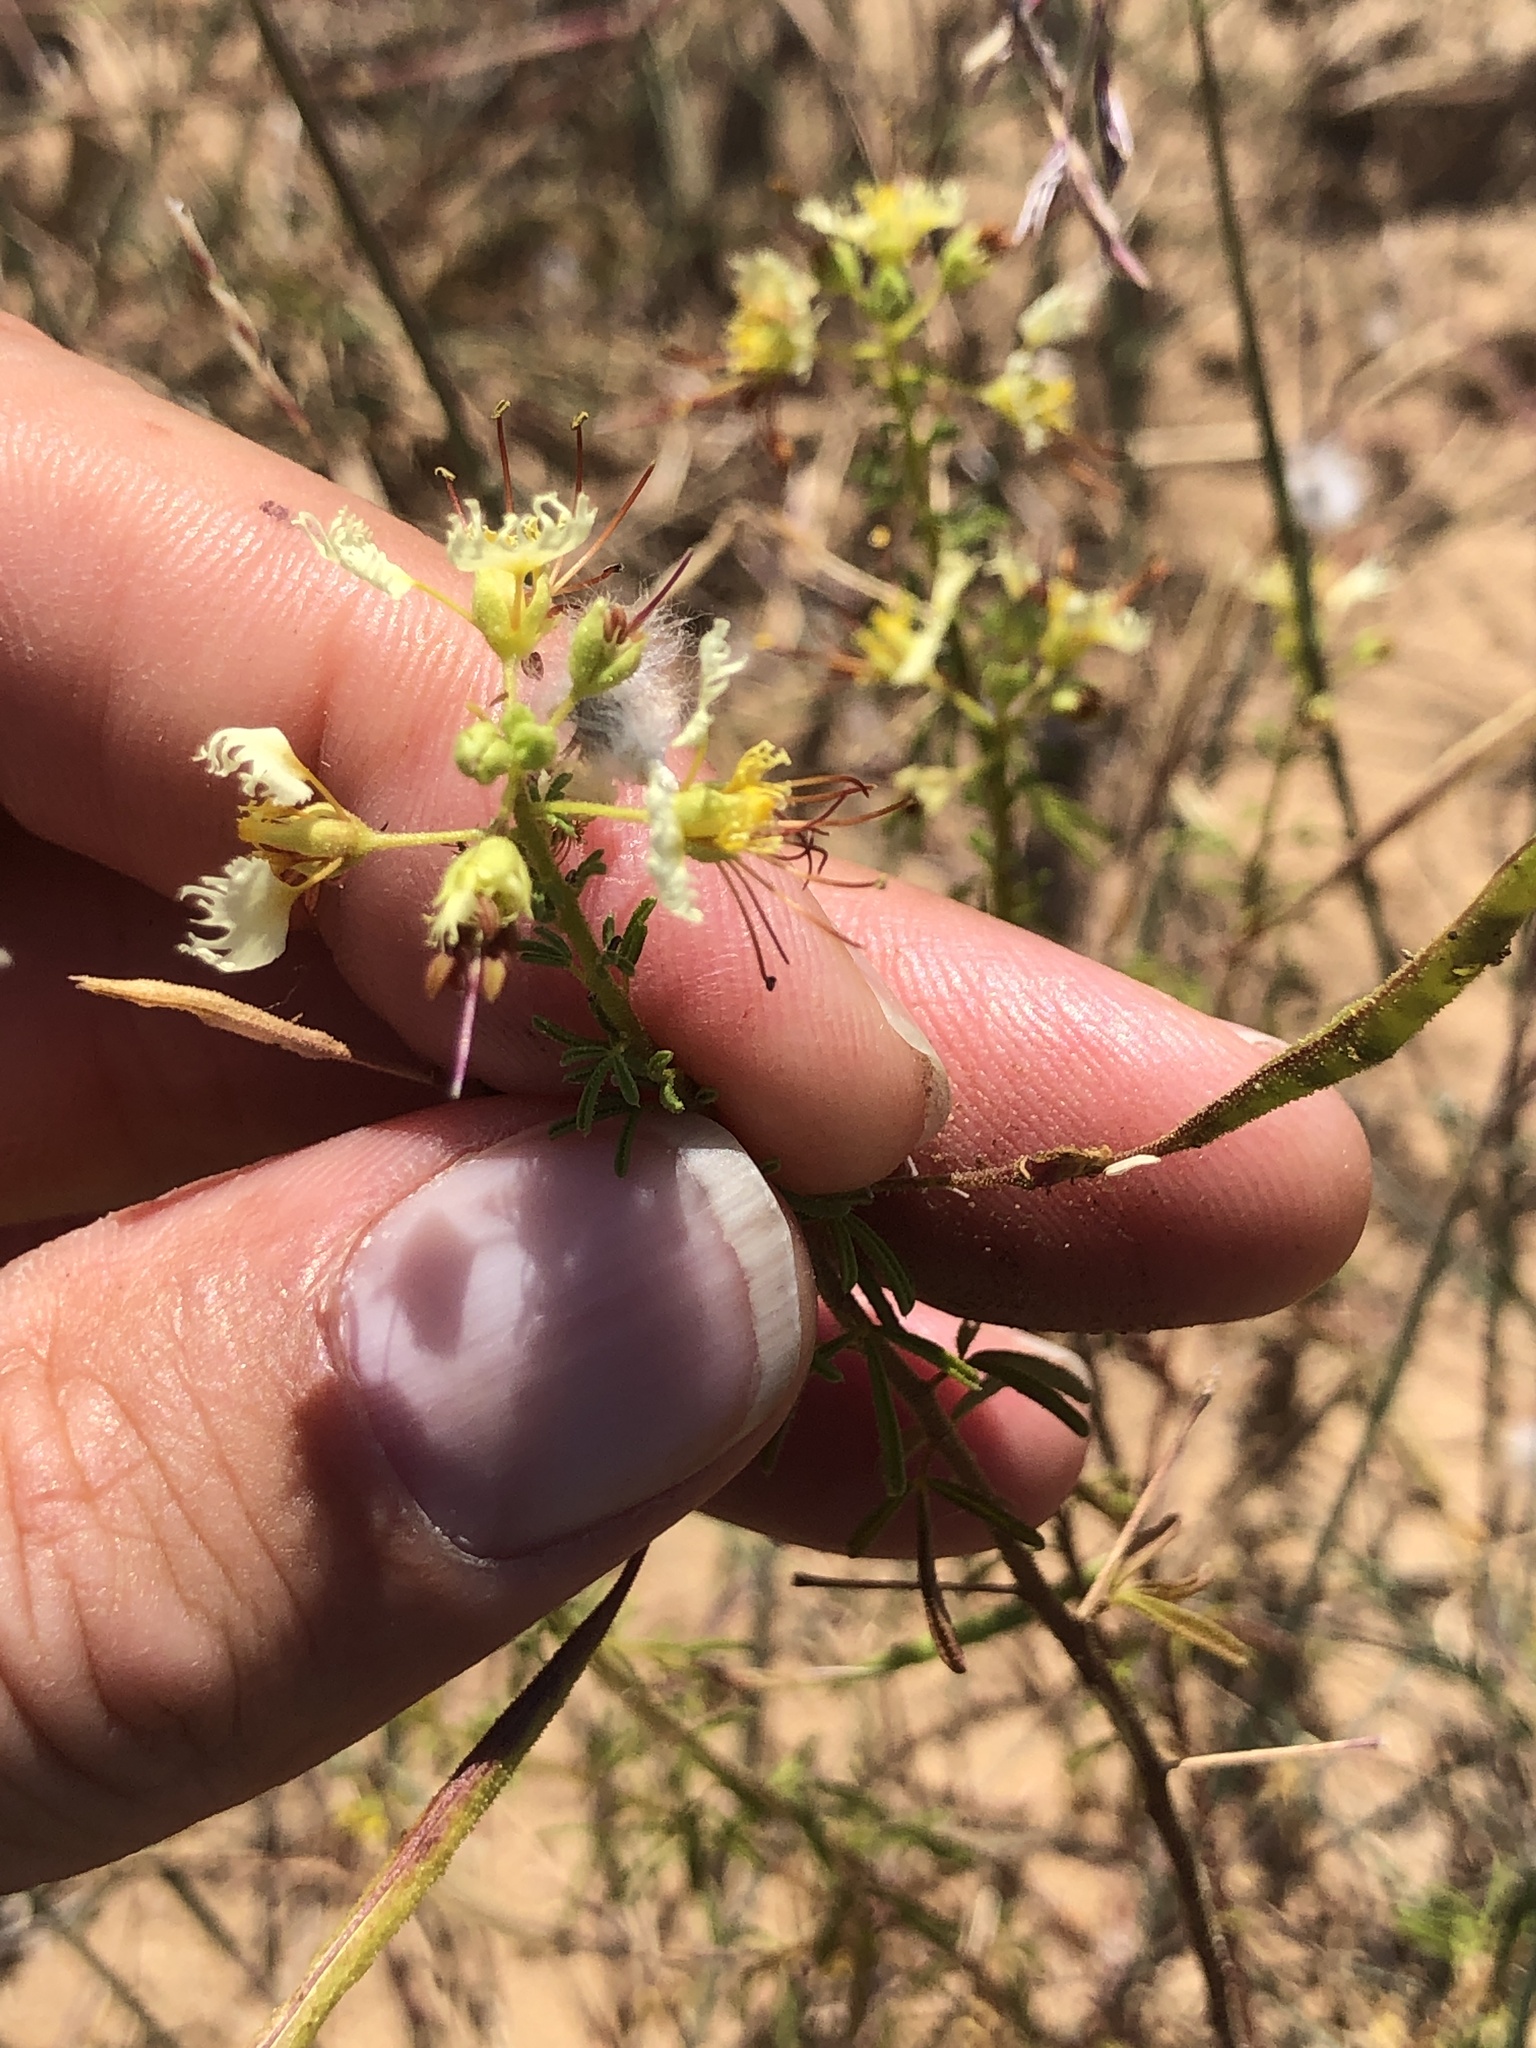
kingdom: Plantae
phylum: Tracheophyta
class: Magnoliopsida
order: Brassicales
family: Cleomaceae
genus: Polanisia
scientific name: Polanisia erosa
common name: Large clammyweed
